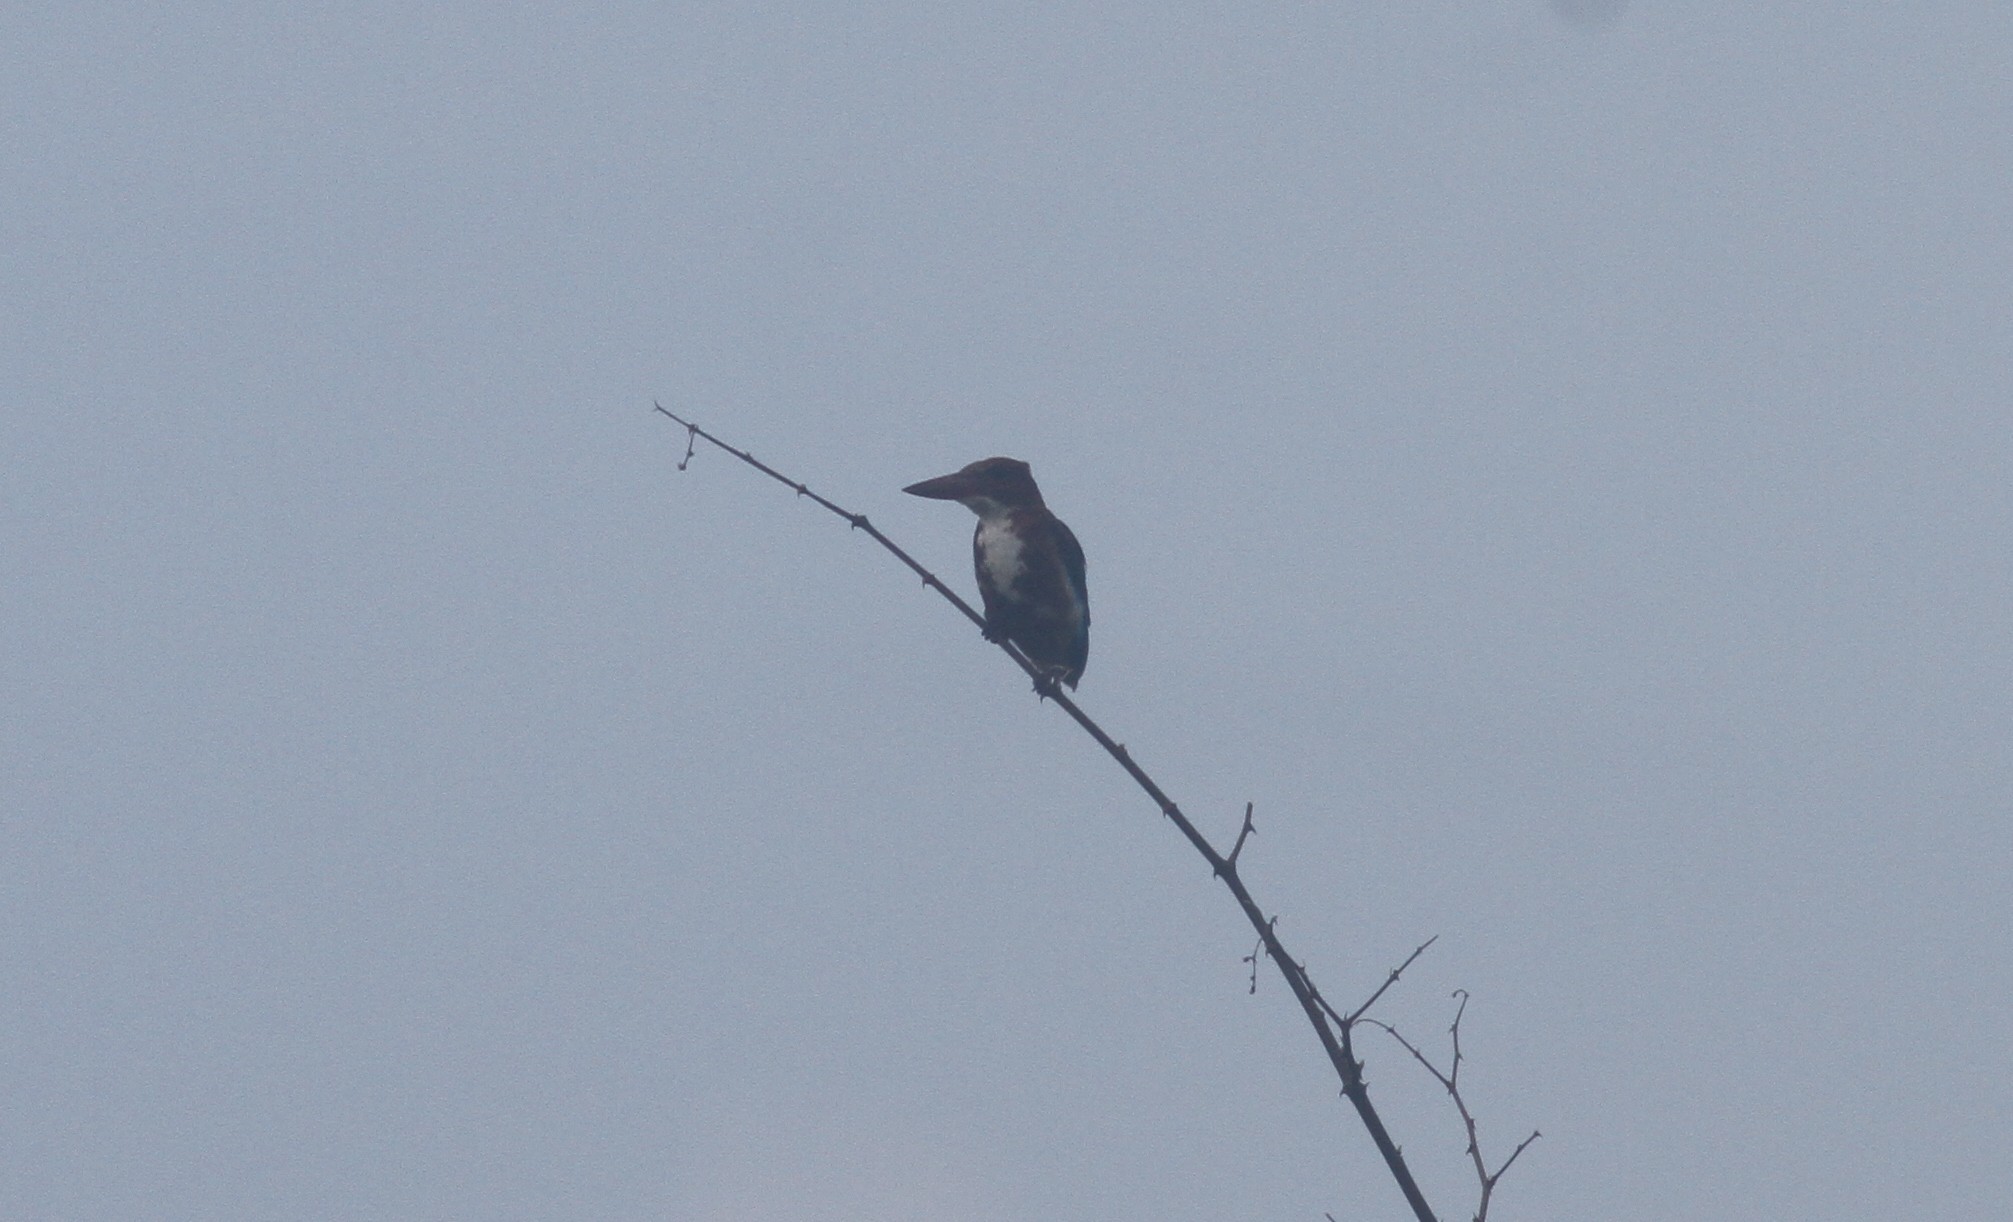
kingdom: Animalia
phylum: Chordata
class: Aves
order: Coraciiformes
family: Alcedinidae
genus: Halcyon
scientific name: Halcyon smyrnensis
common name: White-throated kingfisher
